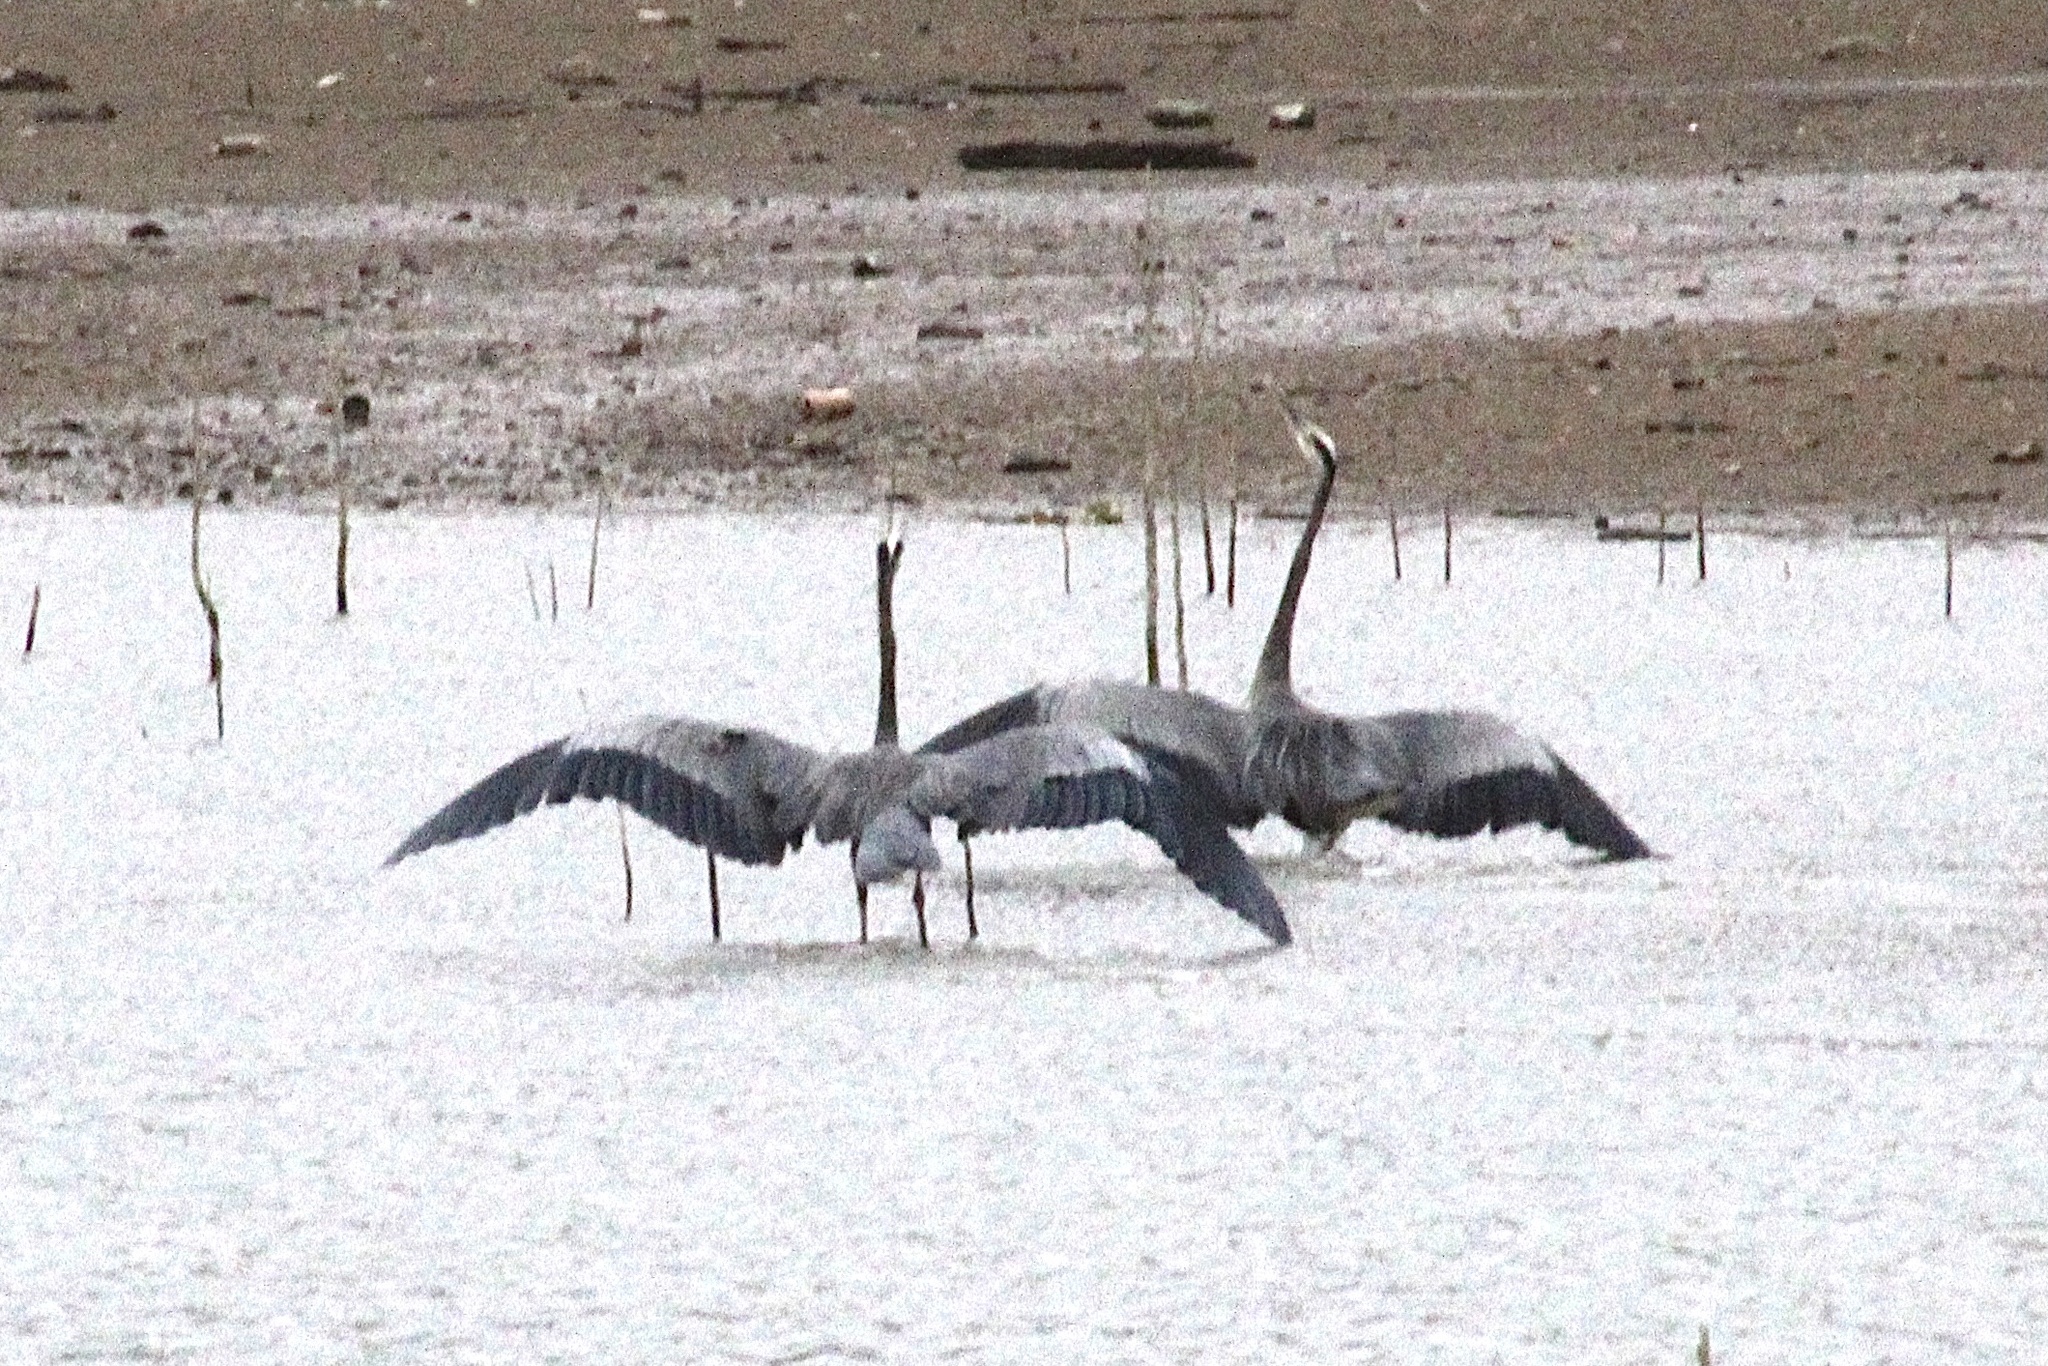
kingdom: Animalia
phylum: Chordata
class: Aves
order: Pelecaniformes
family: Ardeidae
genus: Ardea
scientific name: Ardea herodias
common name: Great blue heron
